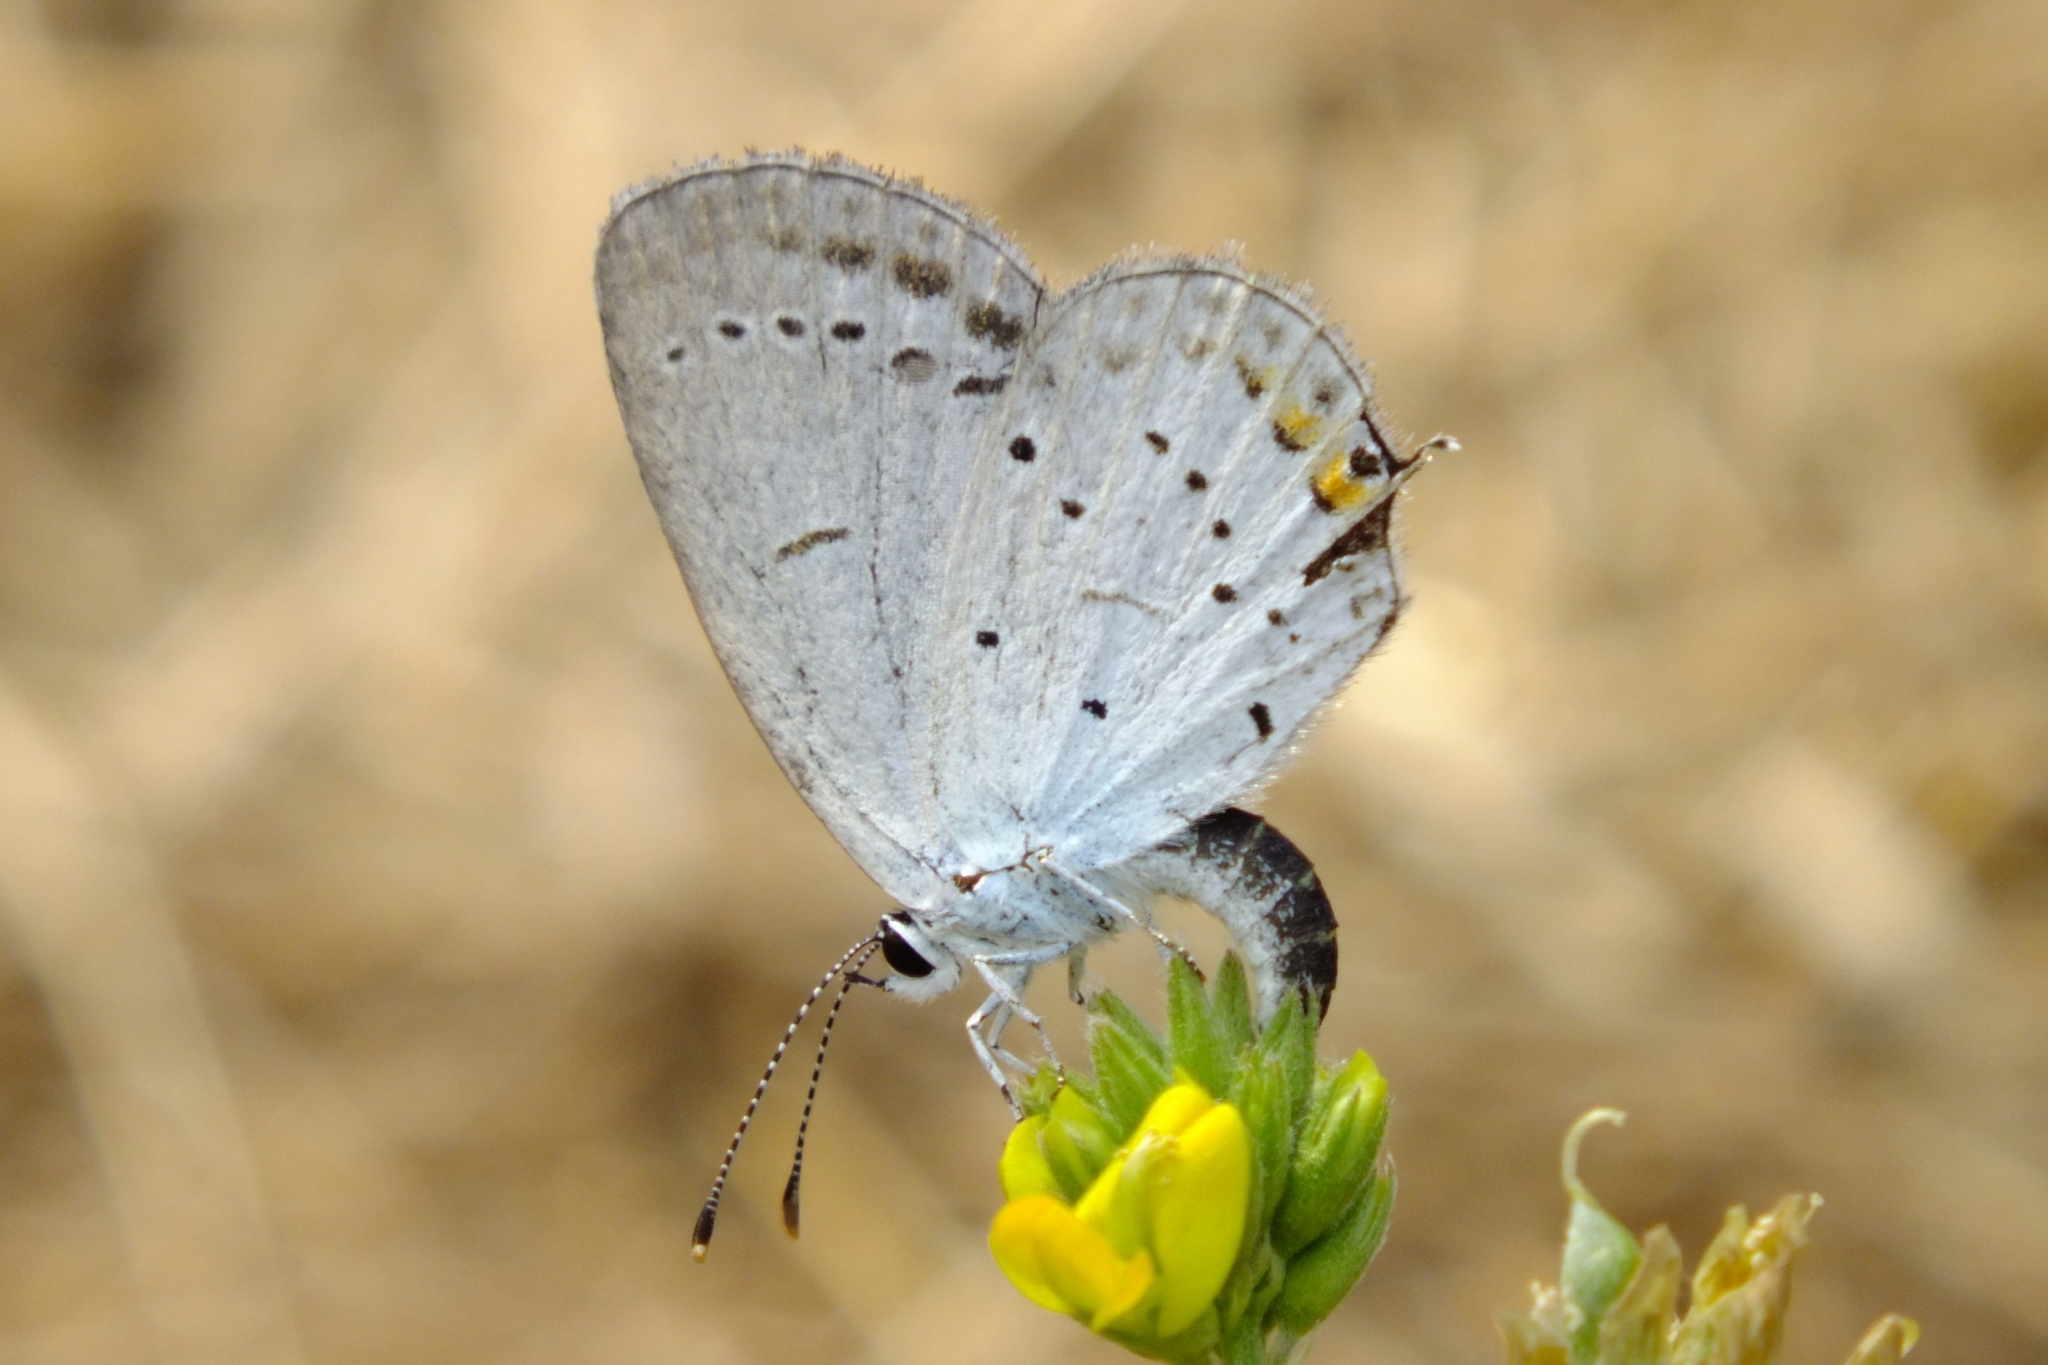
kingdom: Animalia
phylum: Arthropoda
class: Insecta
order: Lepidoptera
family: Lycaenidae
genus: Elkalyce
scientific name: Elkalyce argiades
